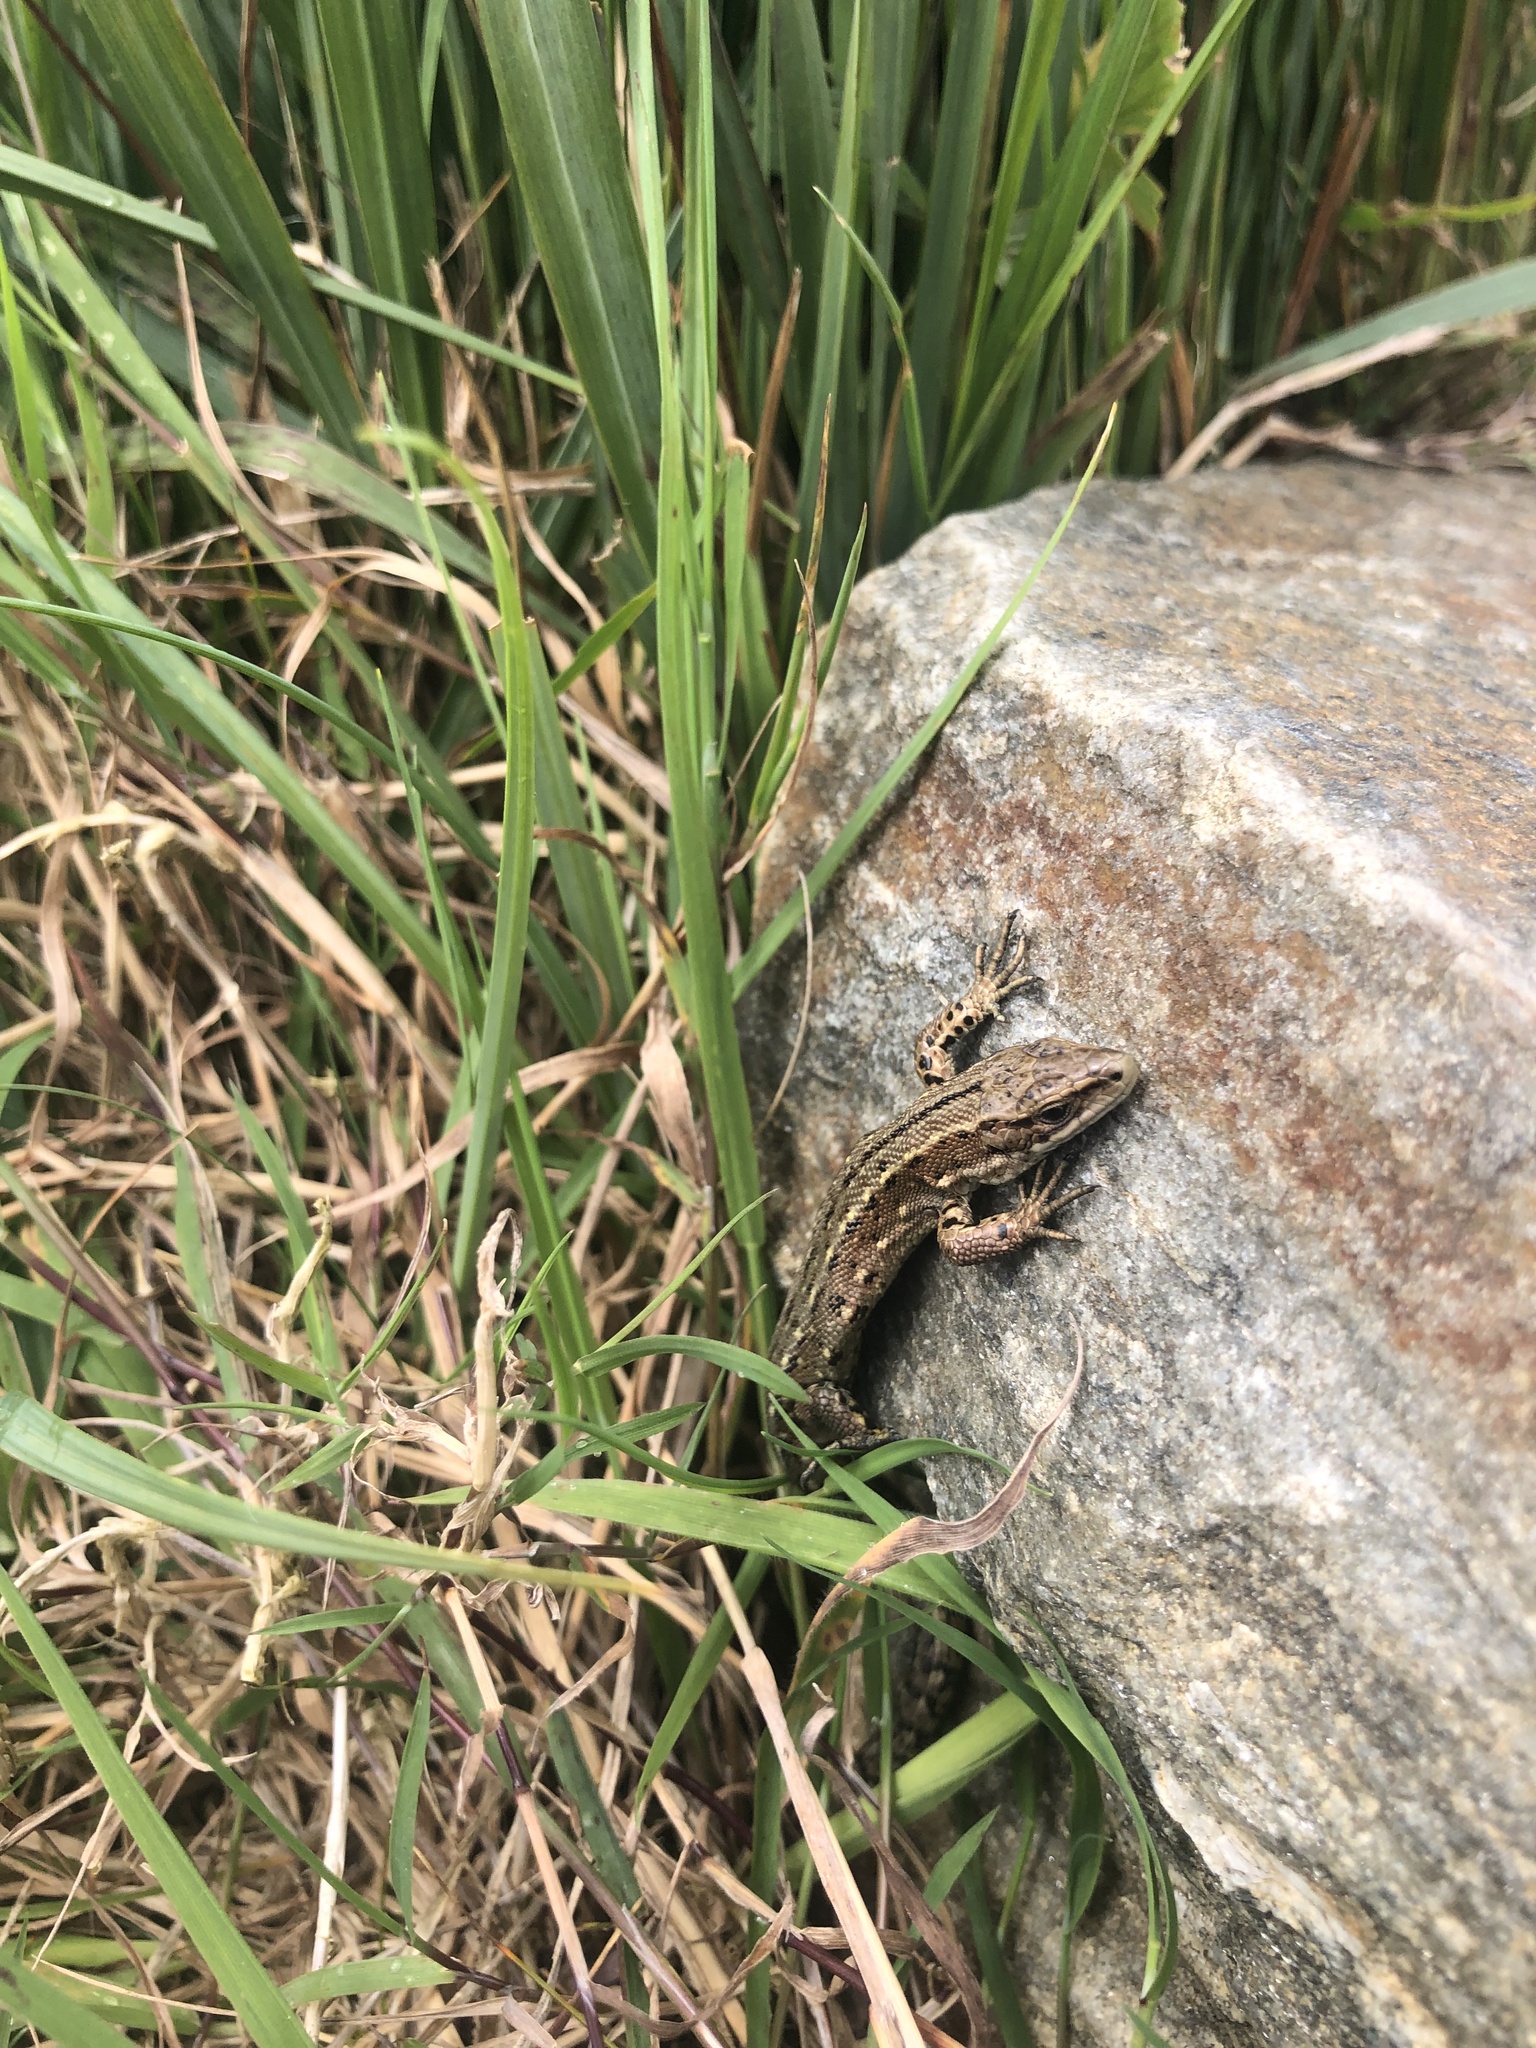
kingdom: Animalia
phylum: Chordata
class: Squamata
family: Lacertidae
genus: Zootoca
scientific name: Zootoca vivipara
